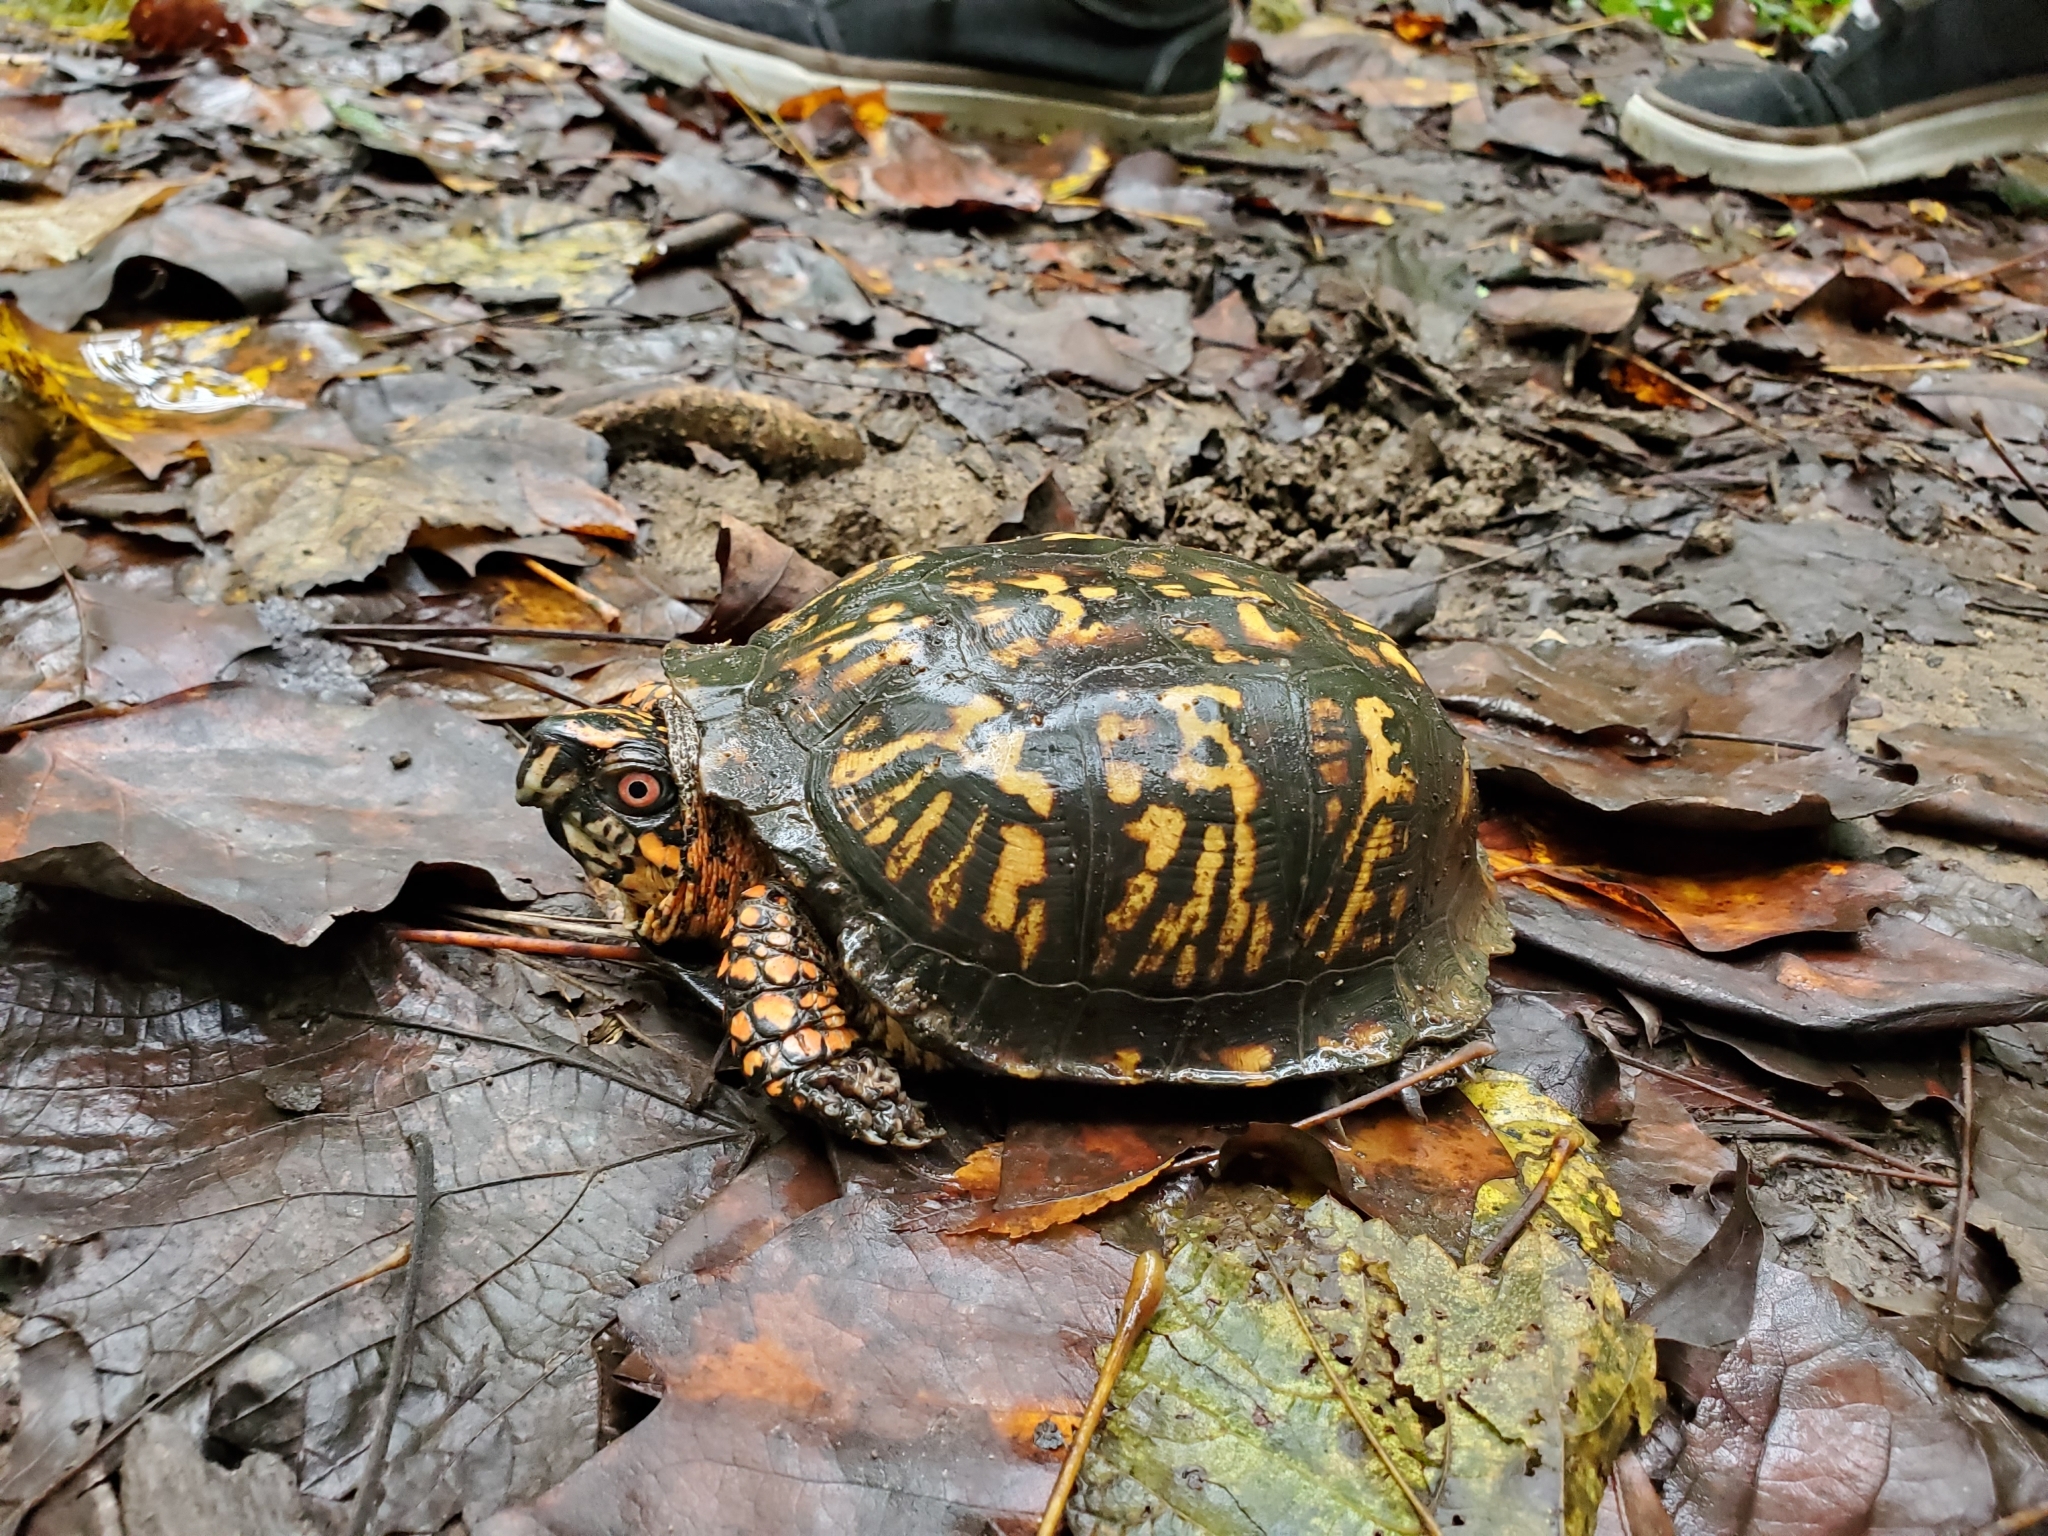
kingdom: Animalia
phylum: Chordata
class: Testudines
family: Emydidae
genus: Terrapene
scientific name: Terrapene carolina
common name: Common box turtle
